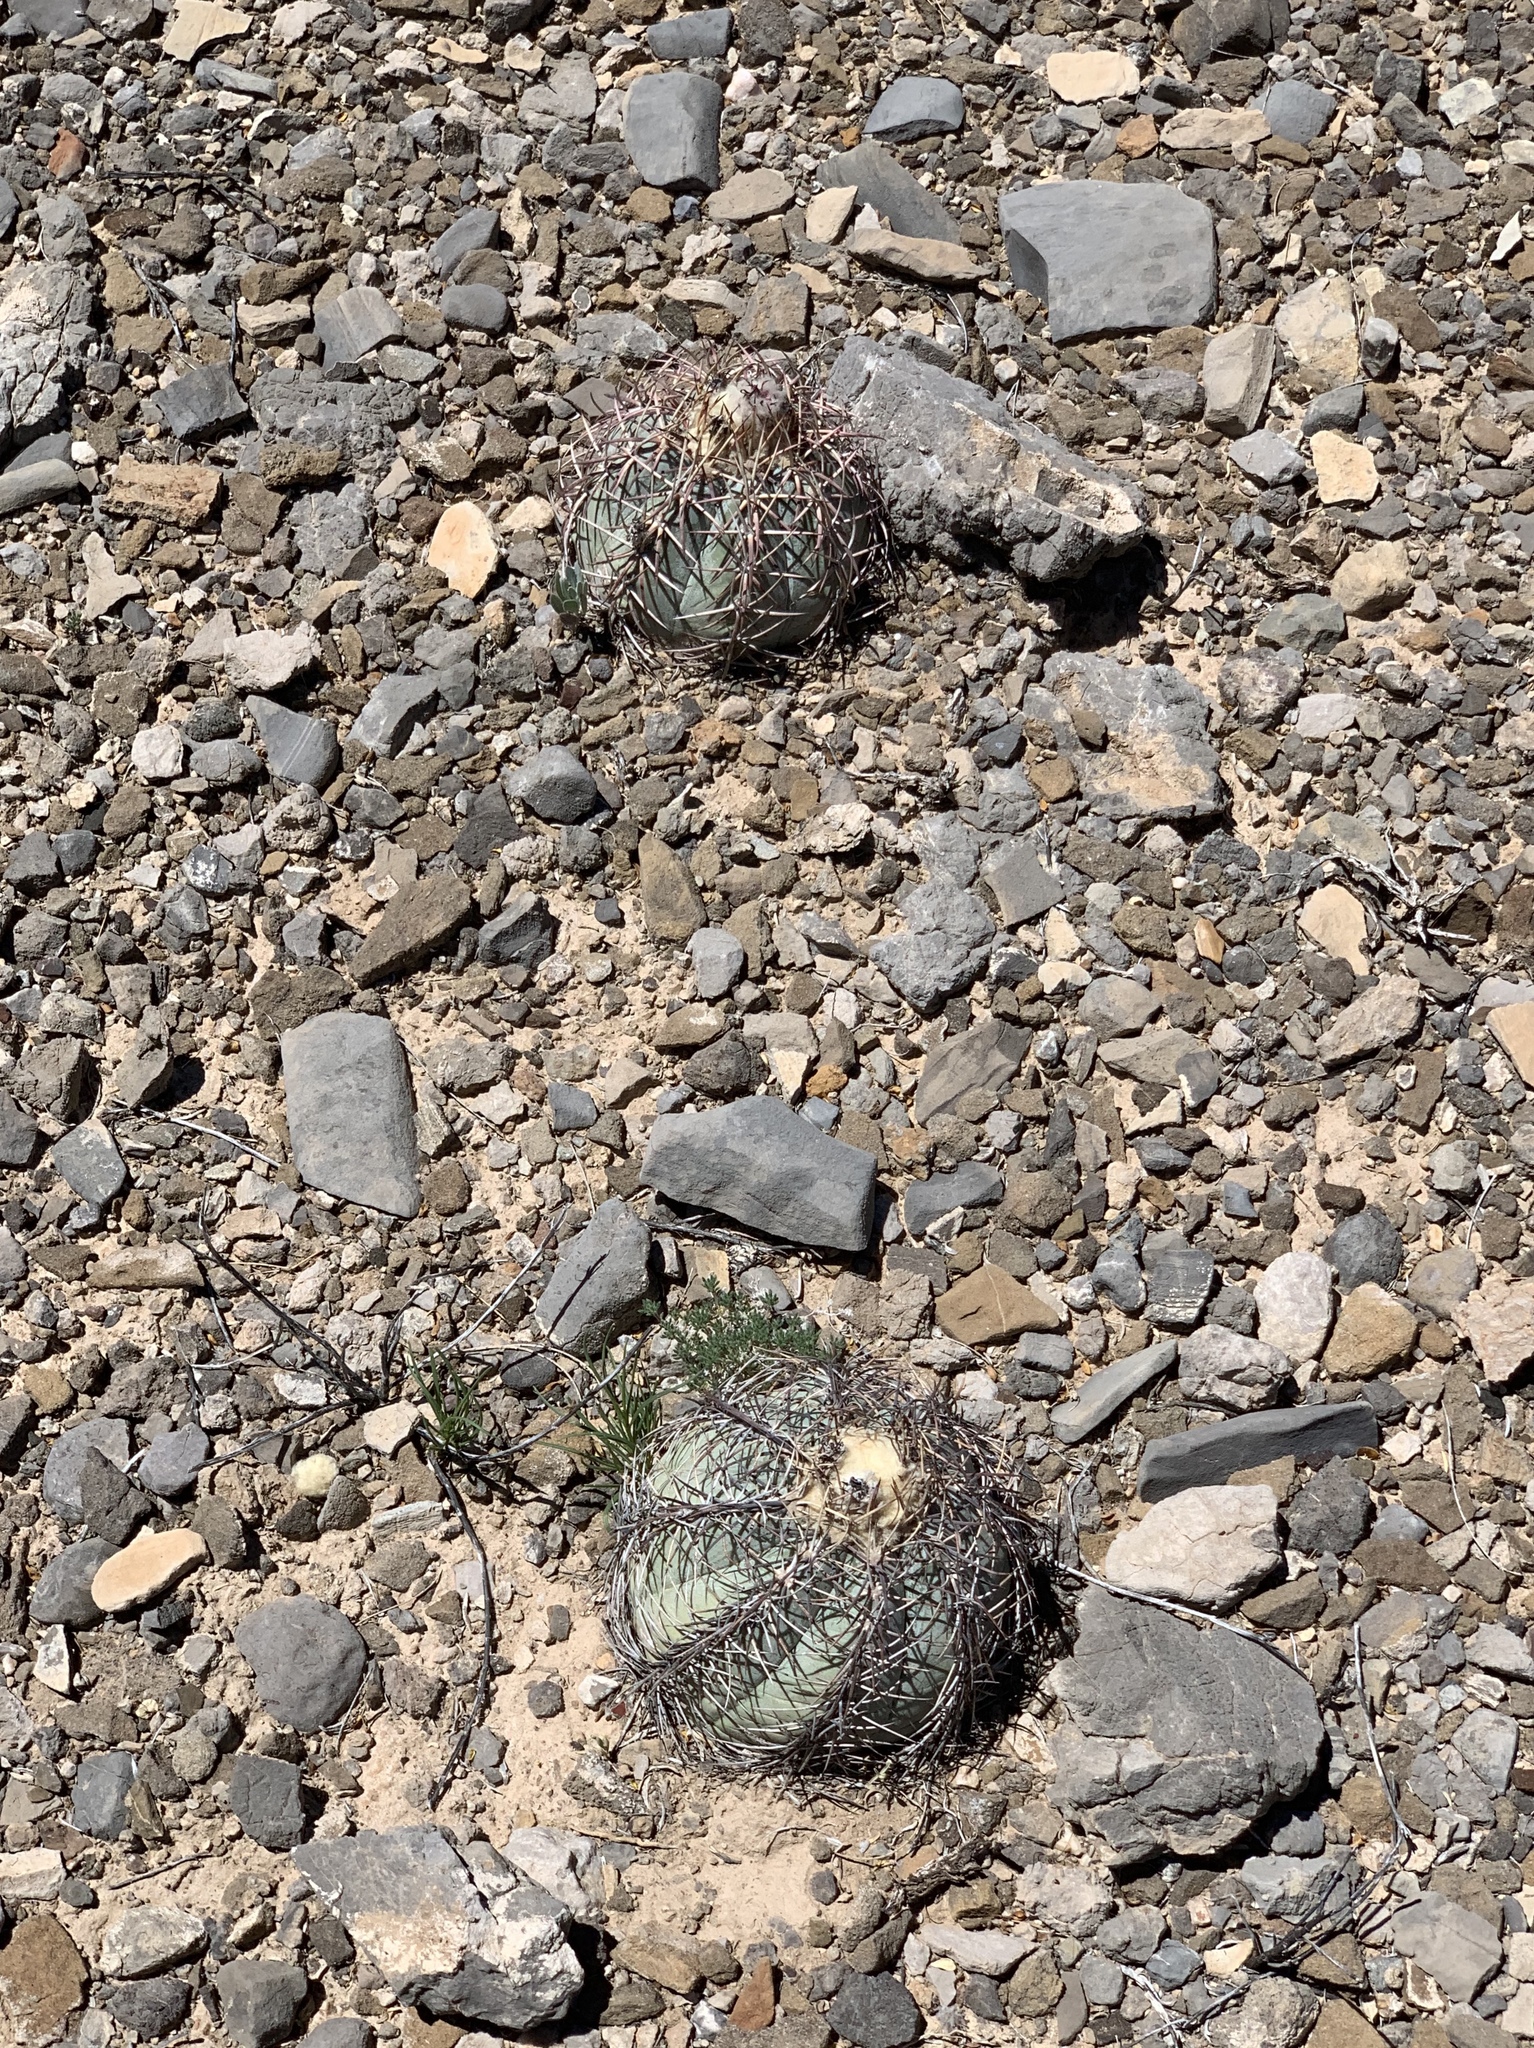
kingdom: Plantae
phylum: Tracheophyta
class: Magnoliopsida
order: Caryophyllales
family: Cactaceae
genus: Echinocactus
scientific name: Echinocactus horizonthalonius
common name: Devilshead
